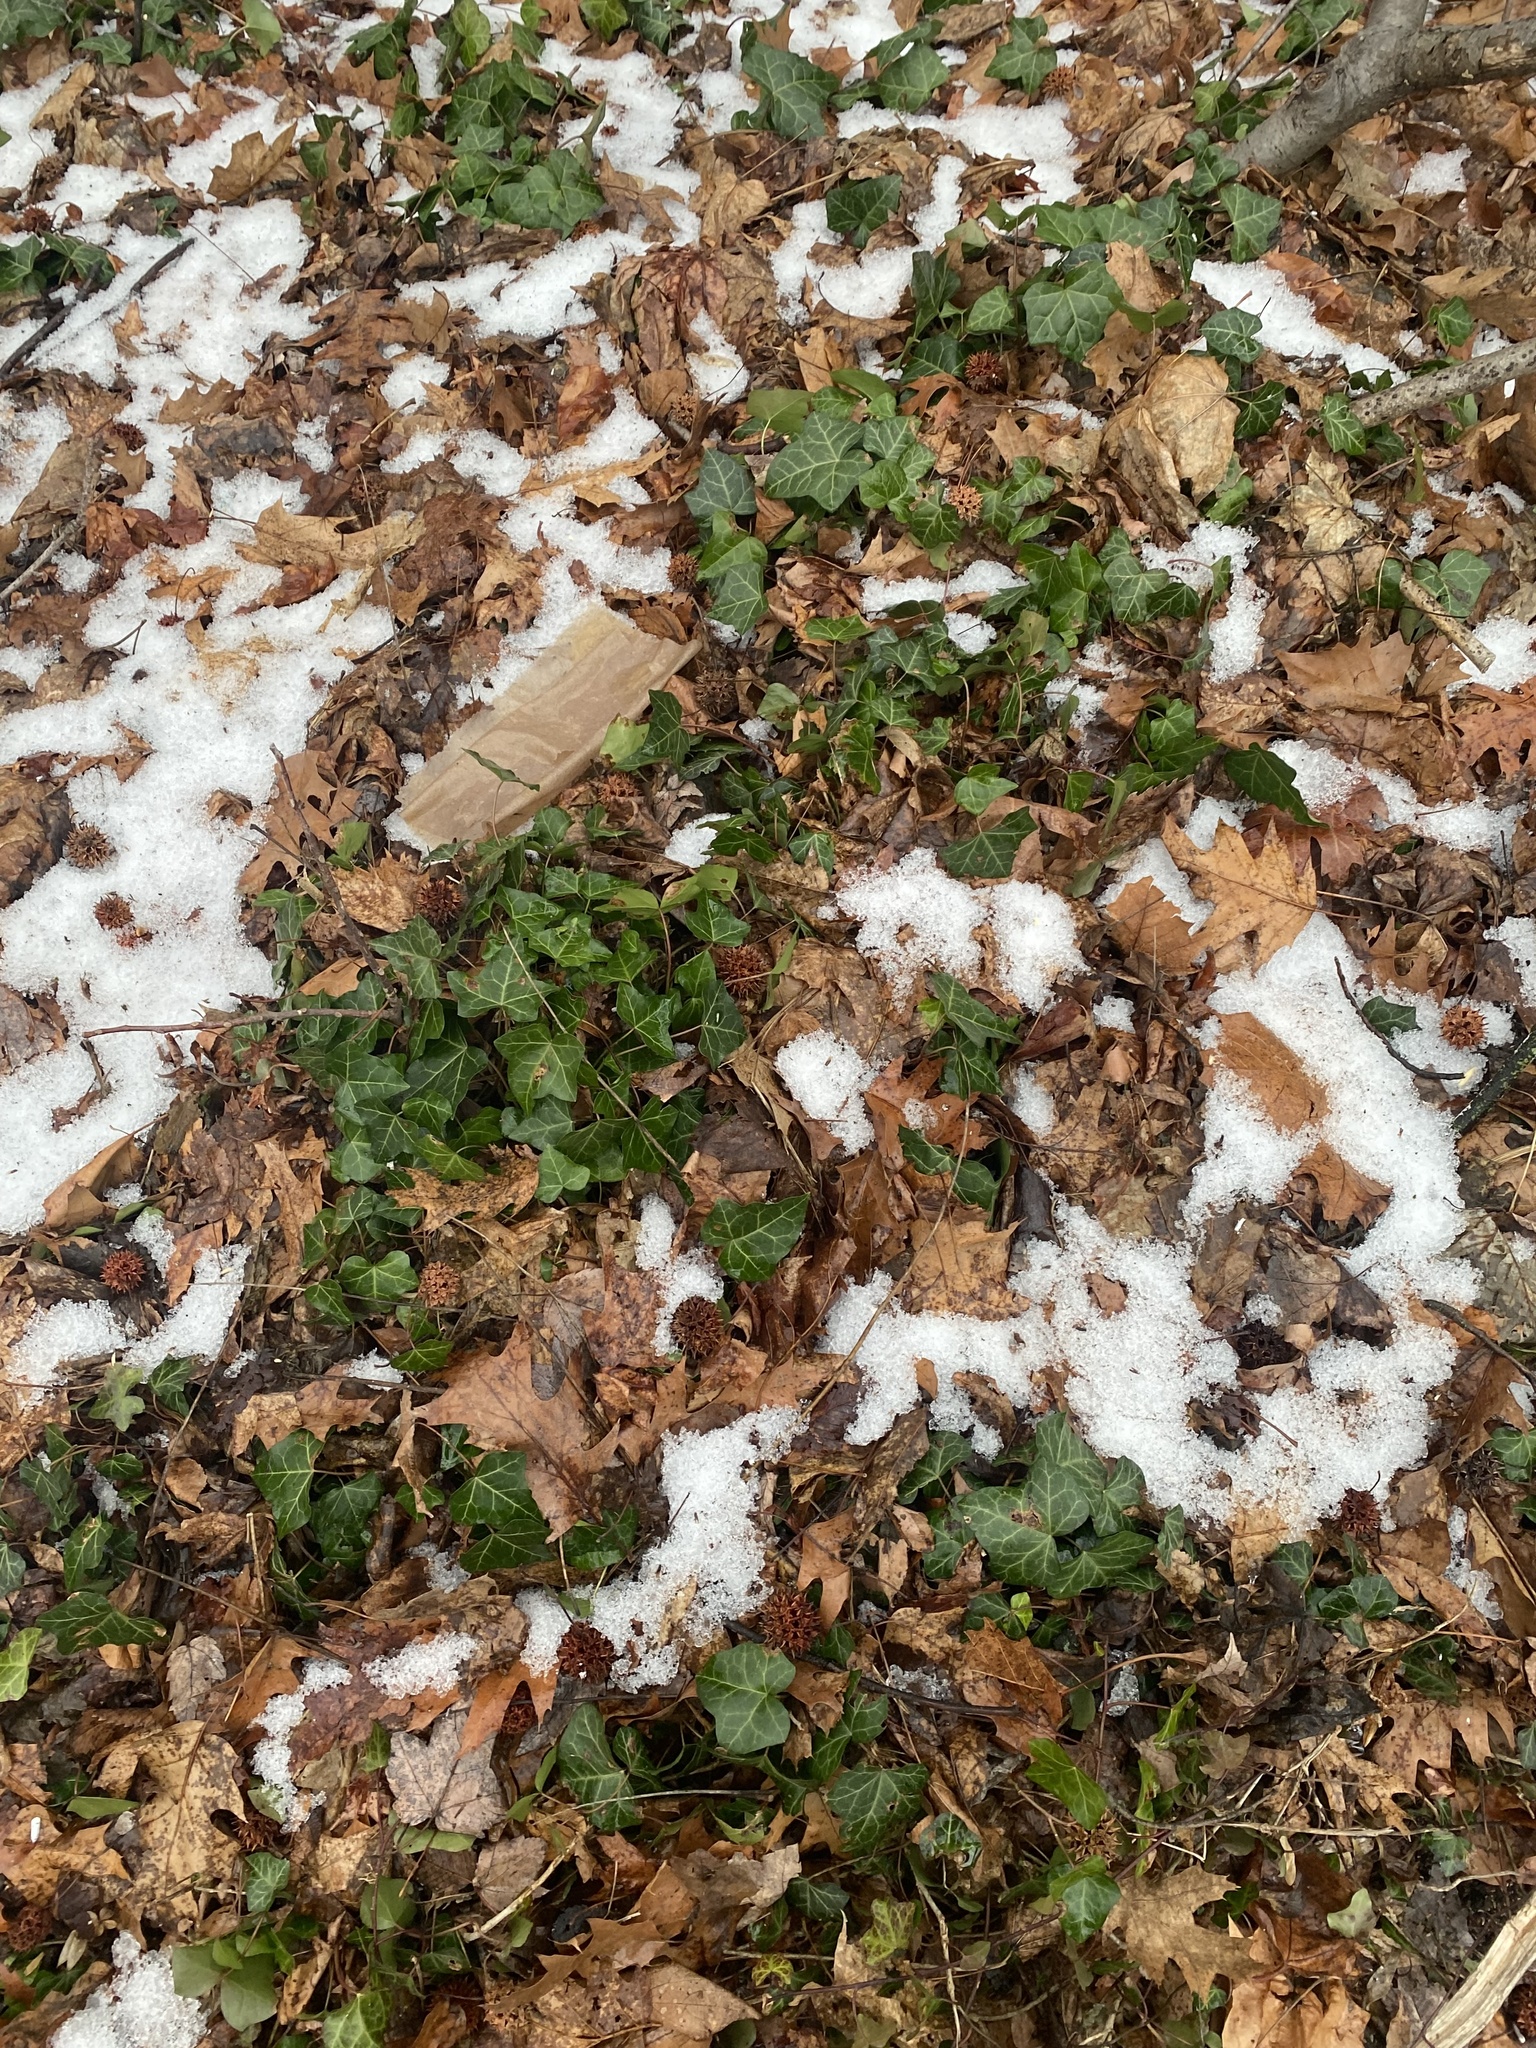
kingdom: Plantae
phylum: Tracheophyta
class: Magnoliopsida
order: Apiales
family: Araliaceae
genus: Hedera
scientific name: Hedera helix
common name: Ivy
